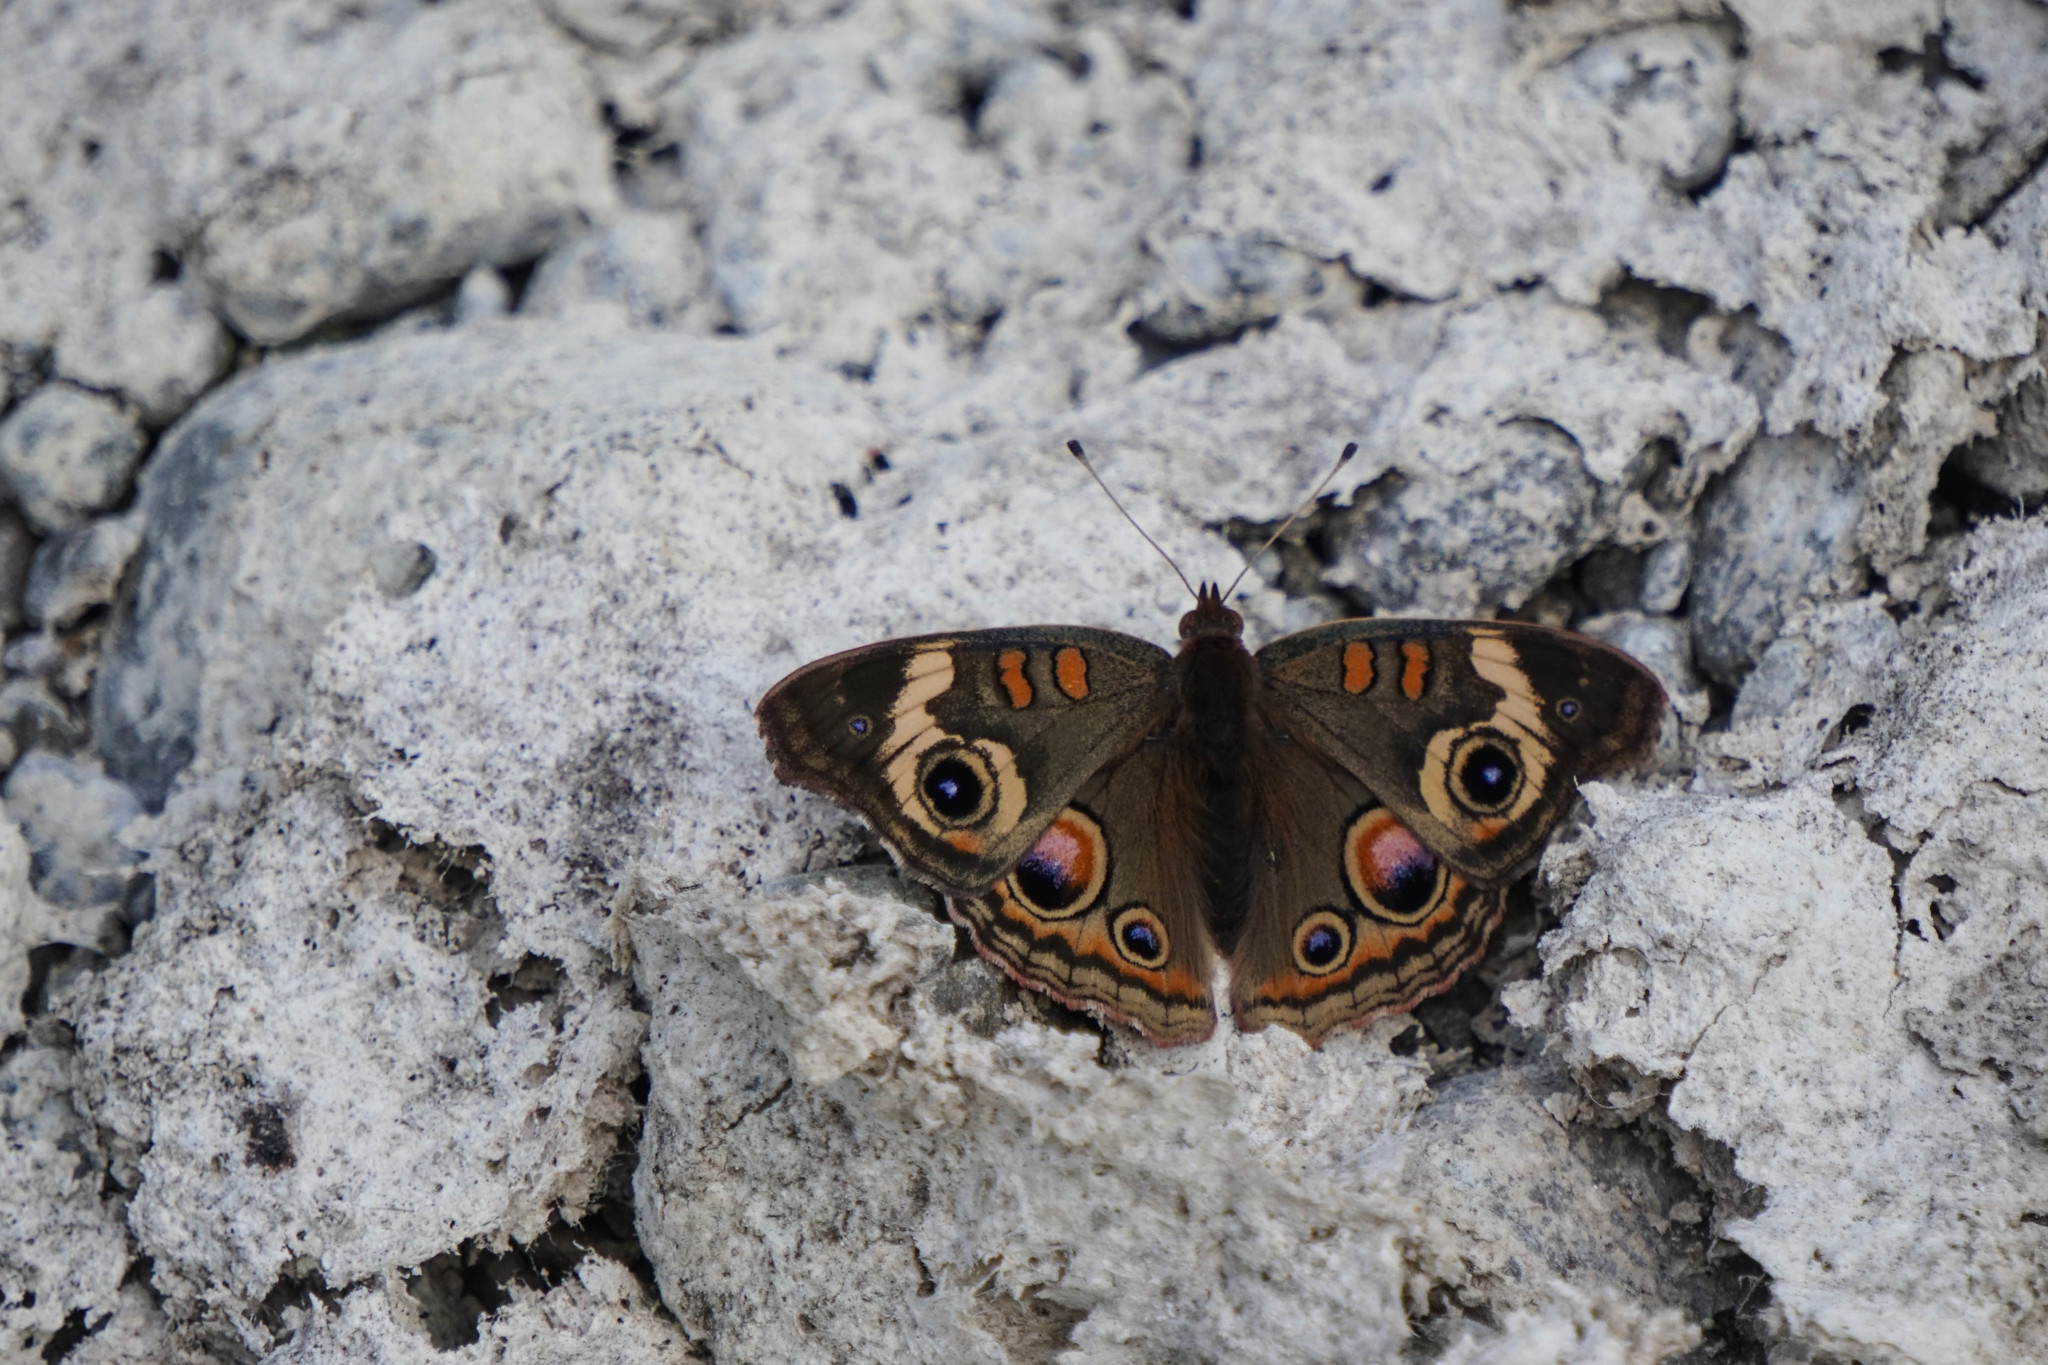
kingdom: Animalia
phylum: Arthropoda
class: Insecta
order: Lepidoptera
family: Nymphalidae
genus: Junonia
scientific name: Junonia grisea
